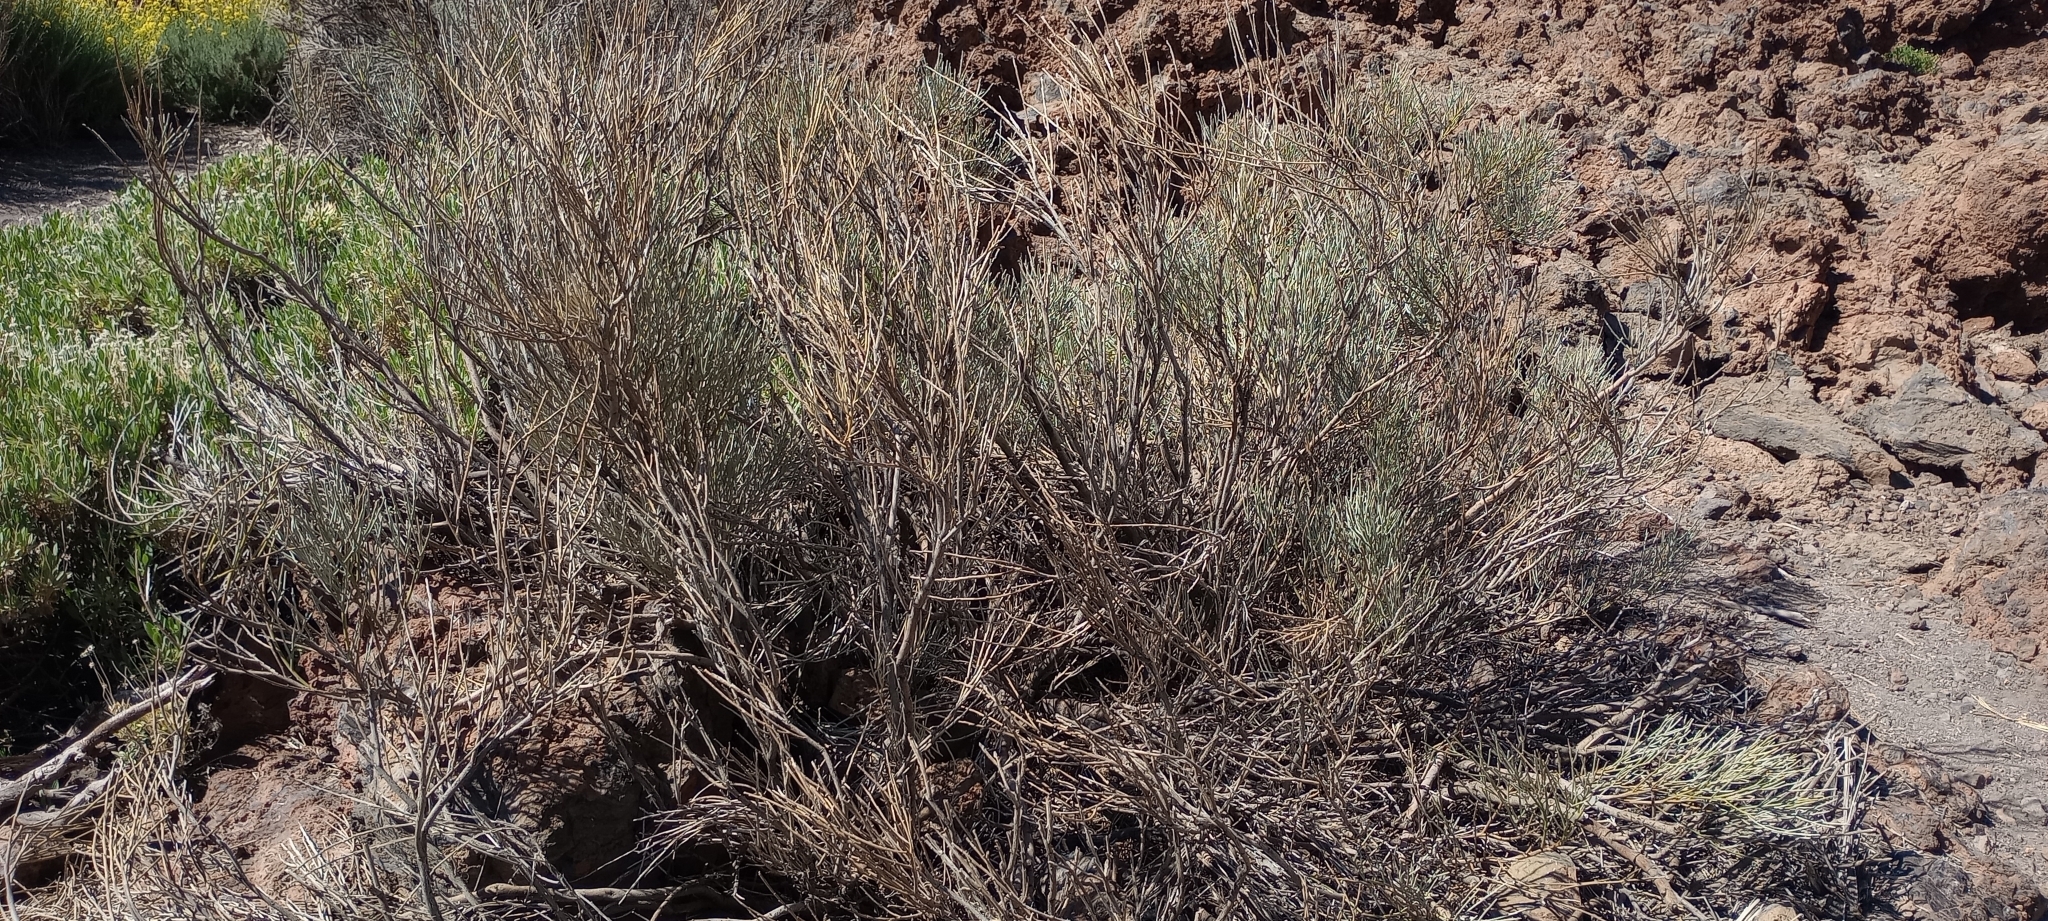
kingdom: Plantae
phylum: Tracheophyta
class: Magnoliopsida
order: Fabales
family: Fabaceae
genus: Cytisus
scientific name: Cytisus supranubius
